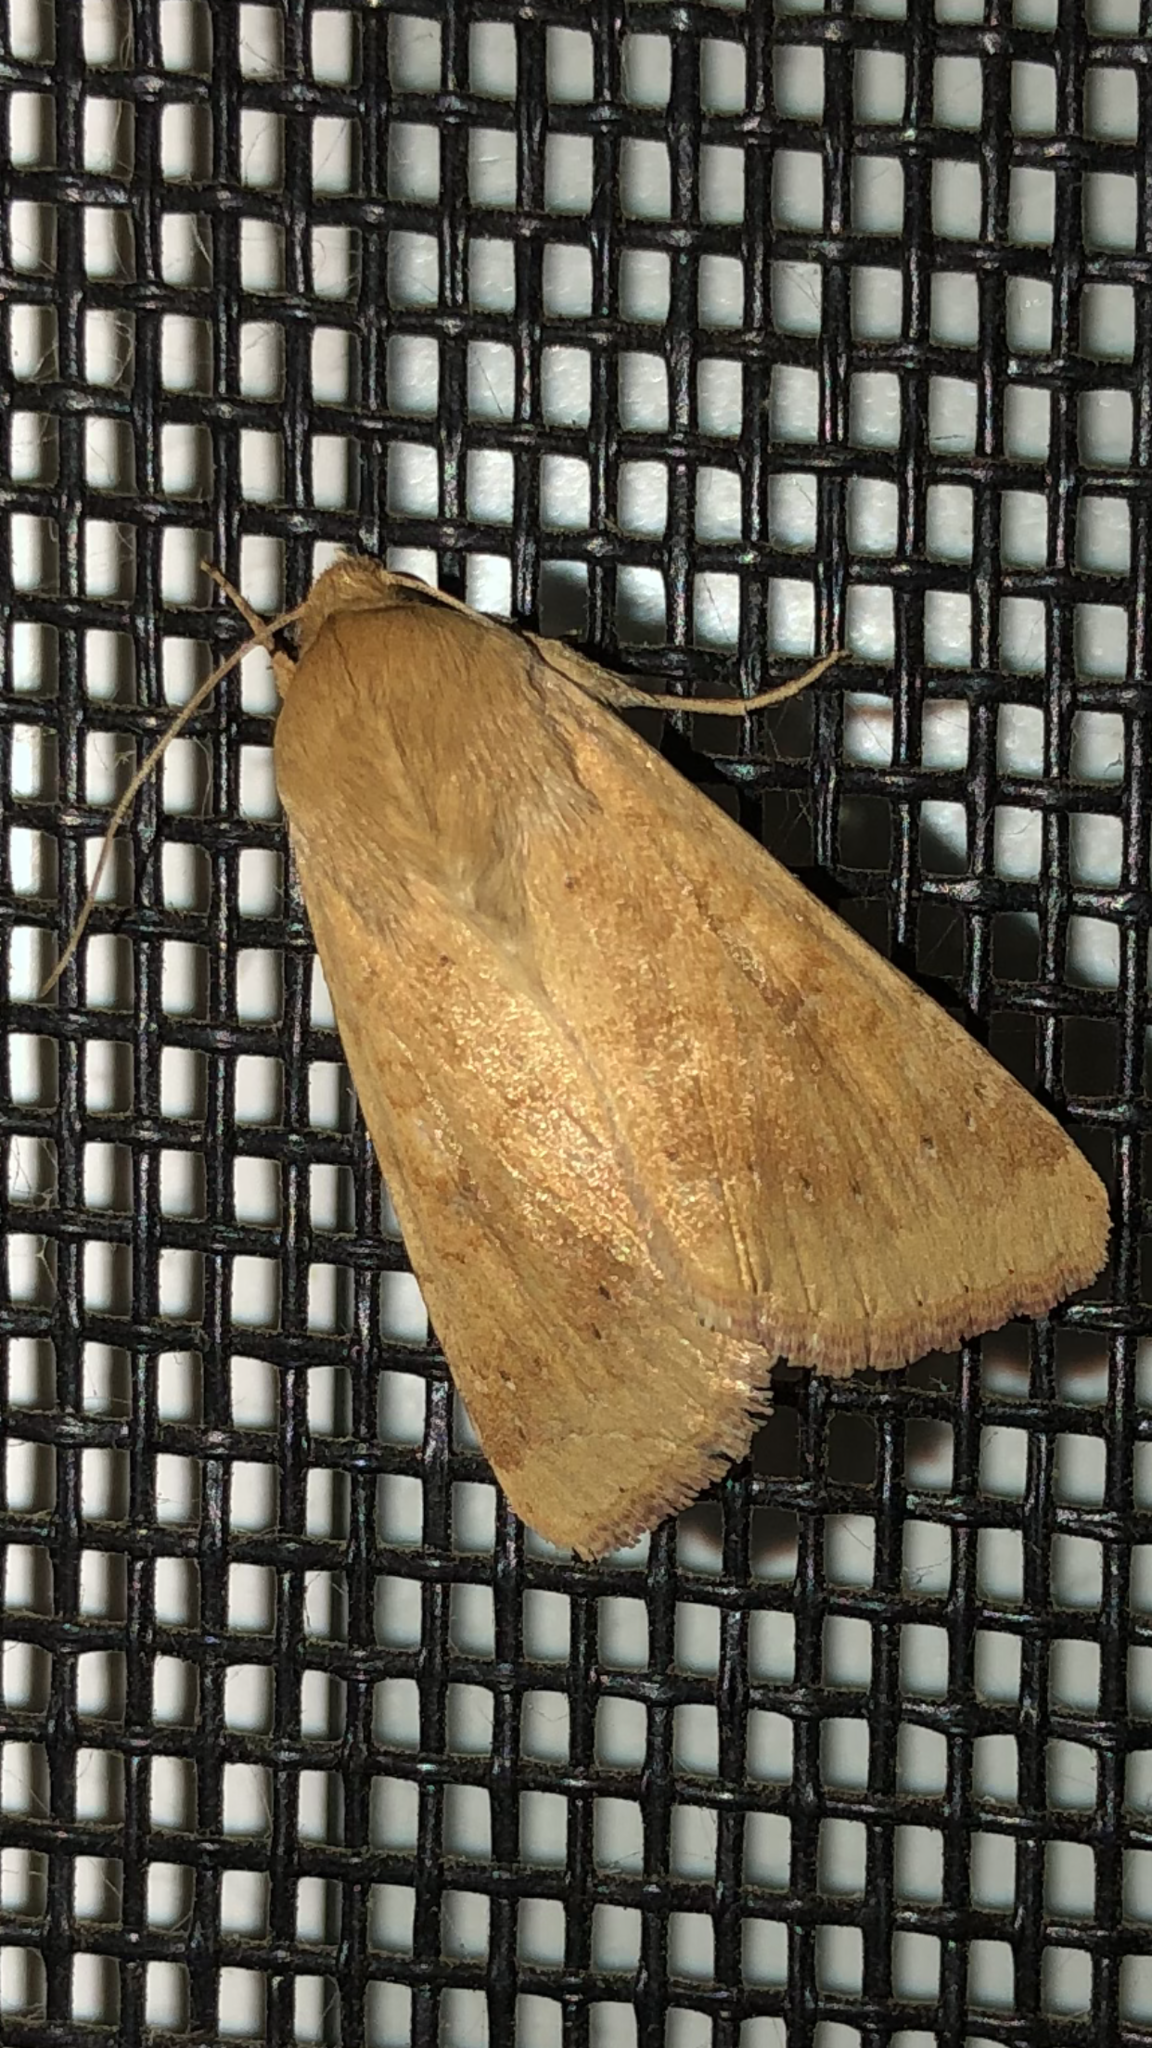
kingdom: Animalia
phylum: Arthropoda
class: Insecta
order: Lepidoptera
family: Noctuidae
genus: Helicoverpa
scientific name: Helicoverpa zea
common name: Bollworm
